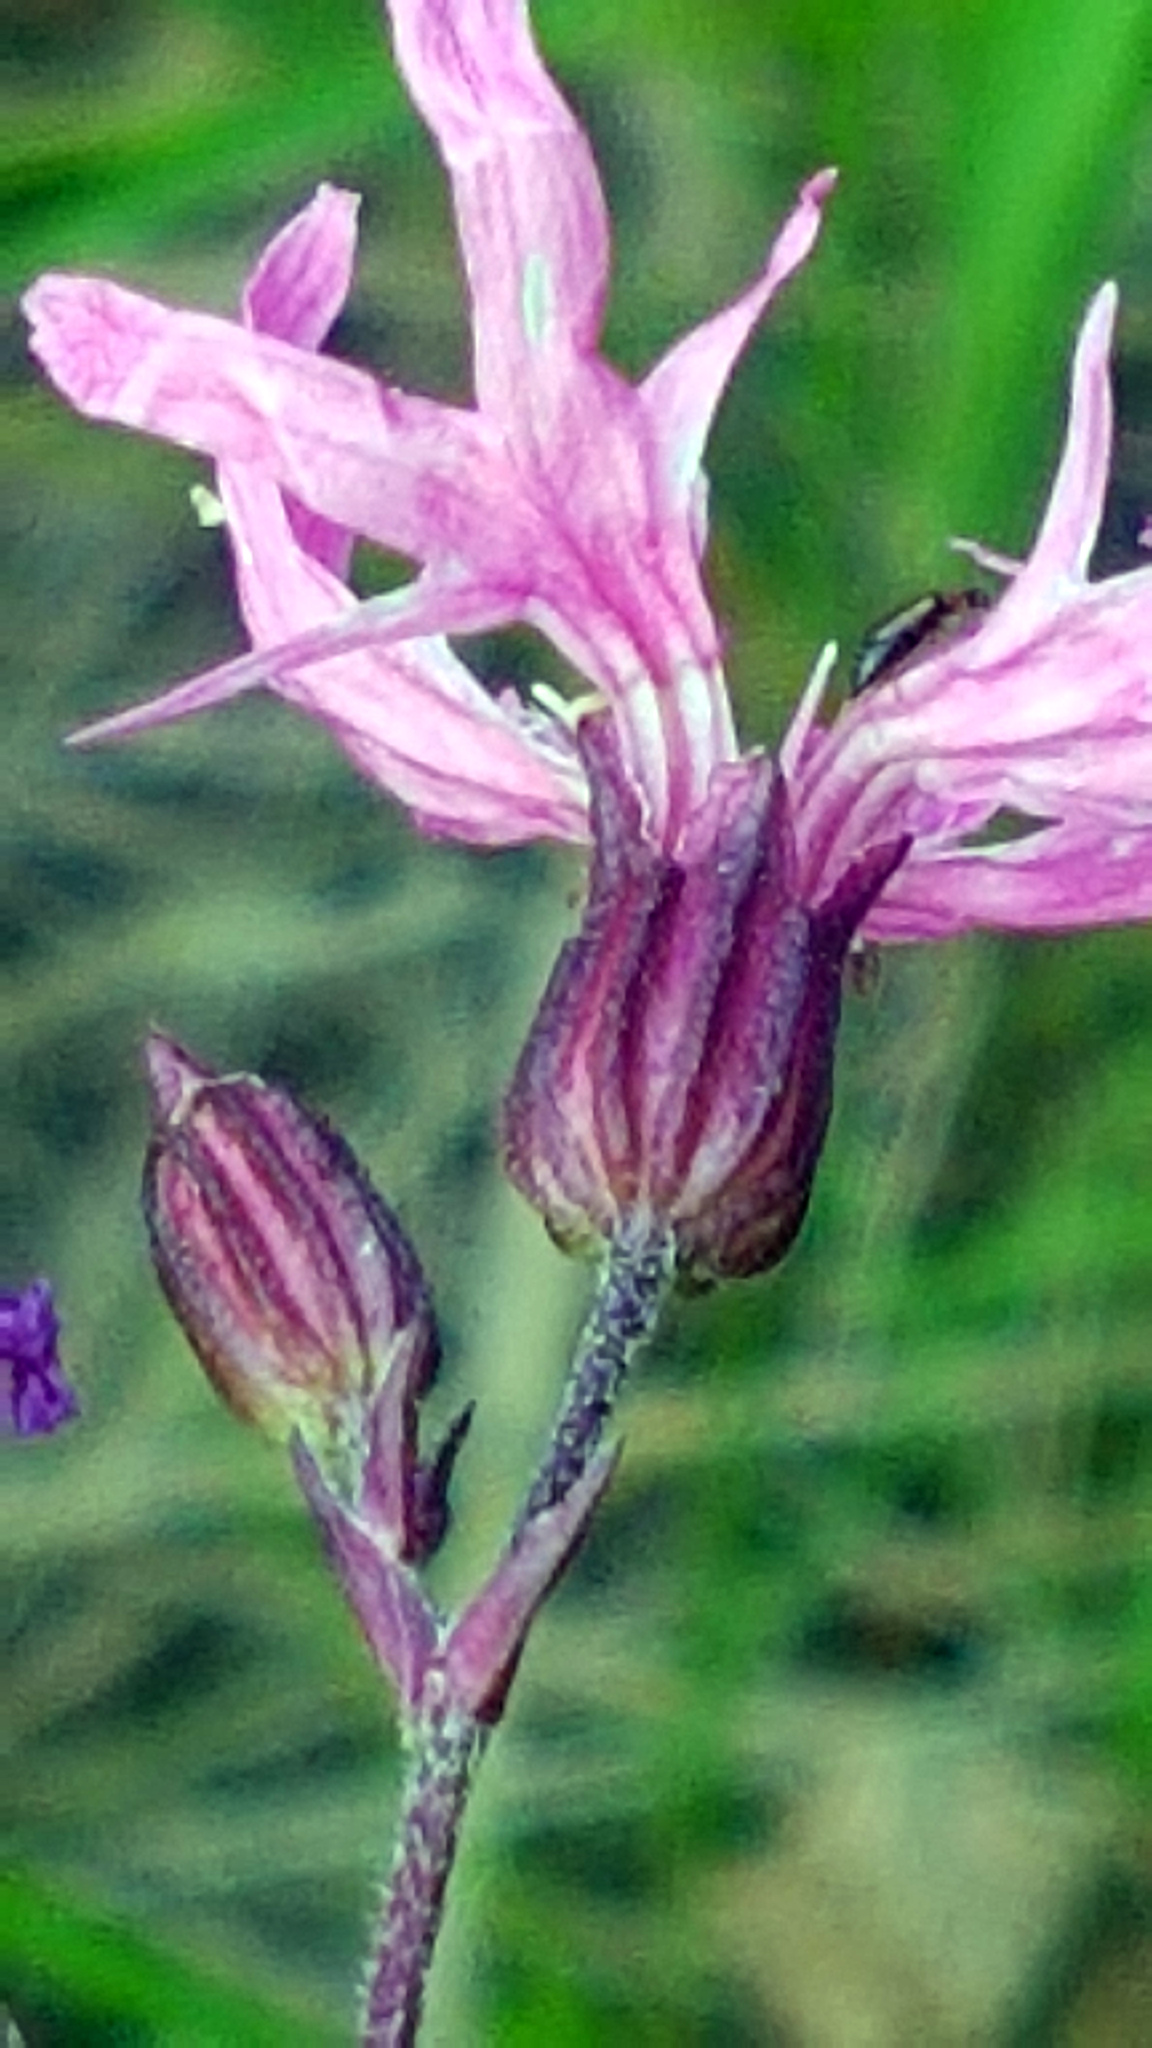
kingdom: Plantae
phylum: Tracheophyta
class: Magnoliopsida
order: Caryophyllales
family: Caryophyllaceae
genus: Silene
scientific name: Silene flos-cuculi
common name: Ragged-robin
